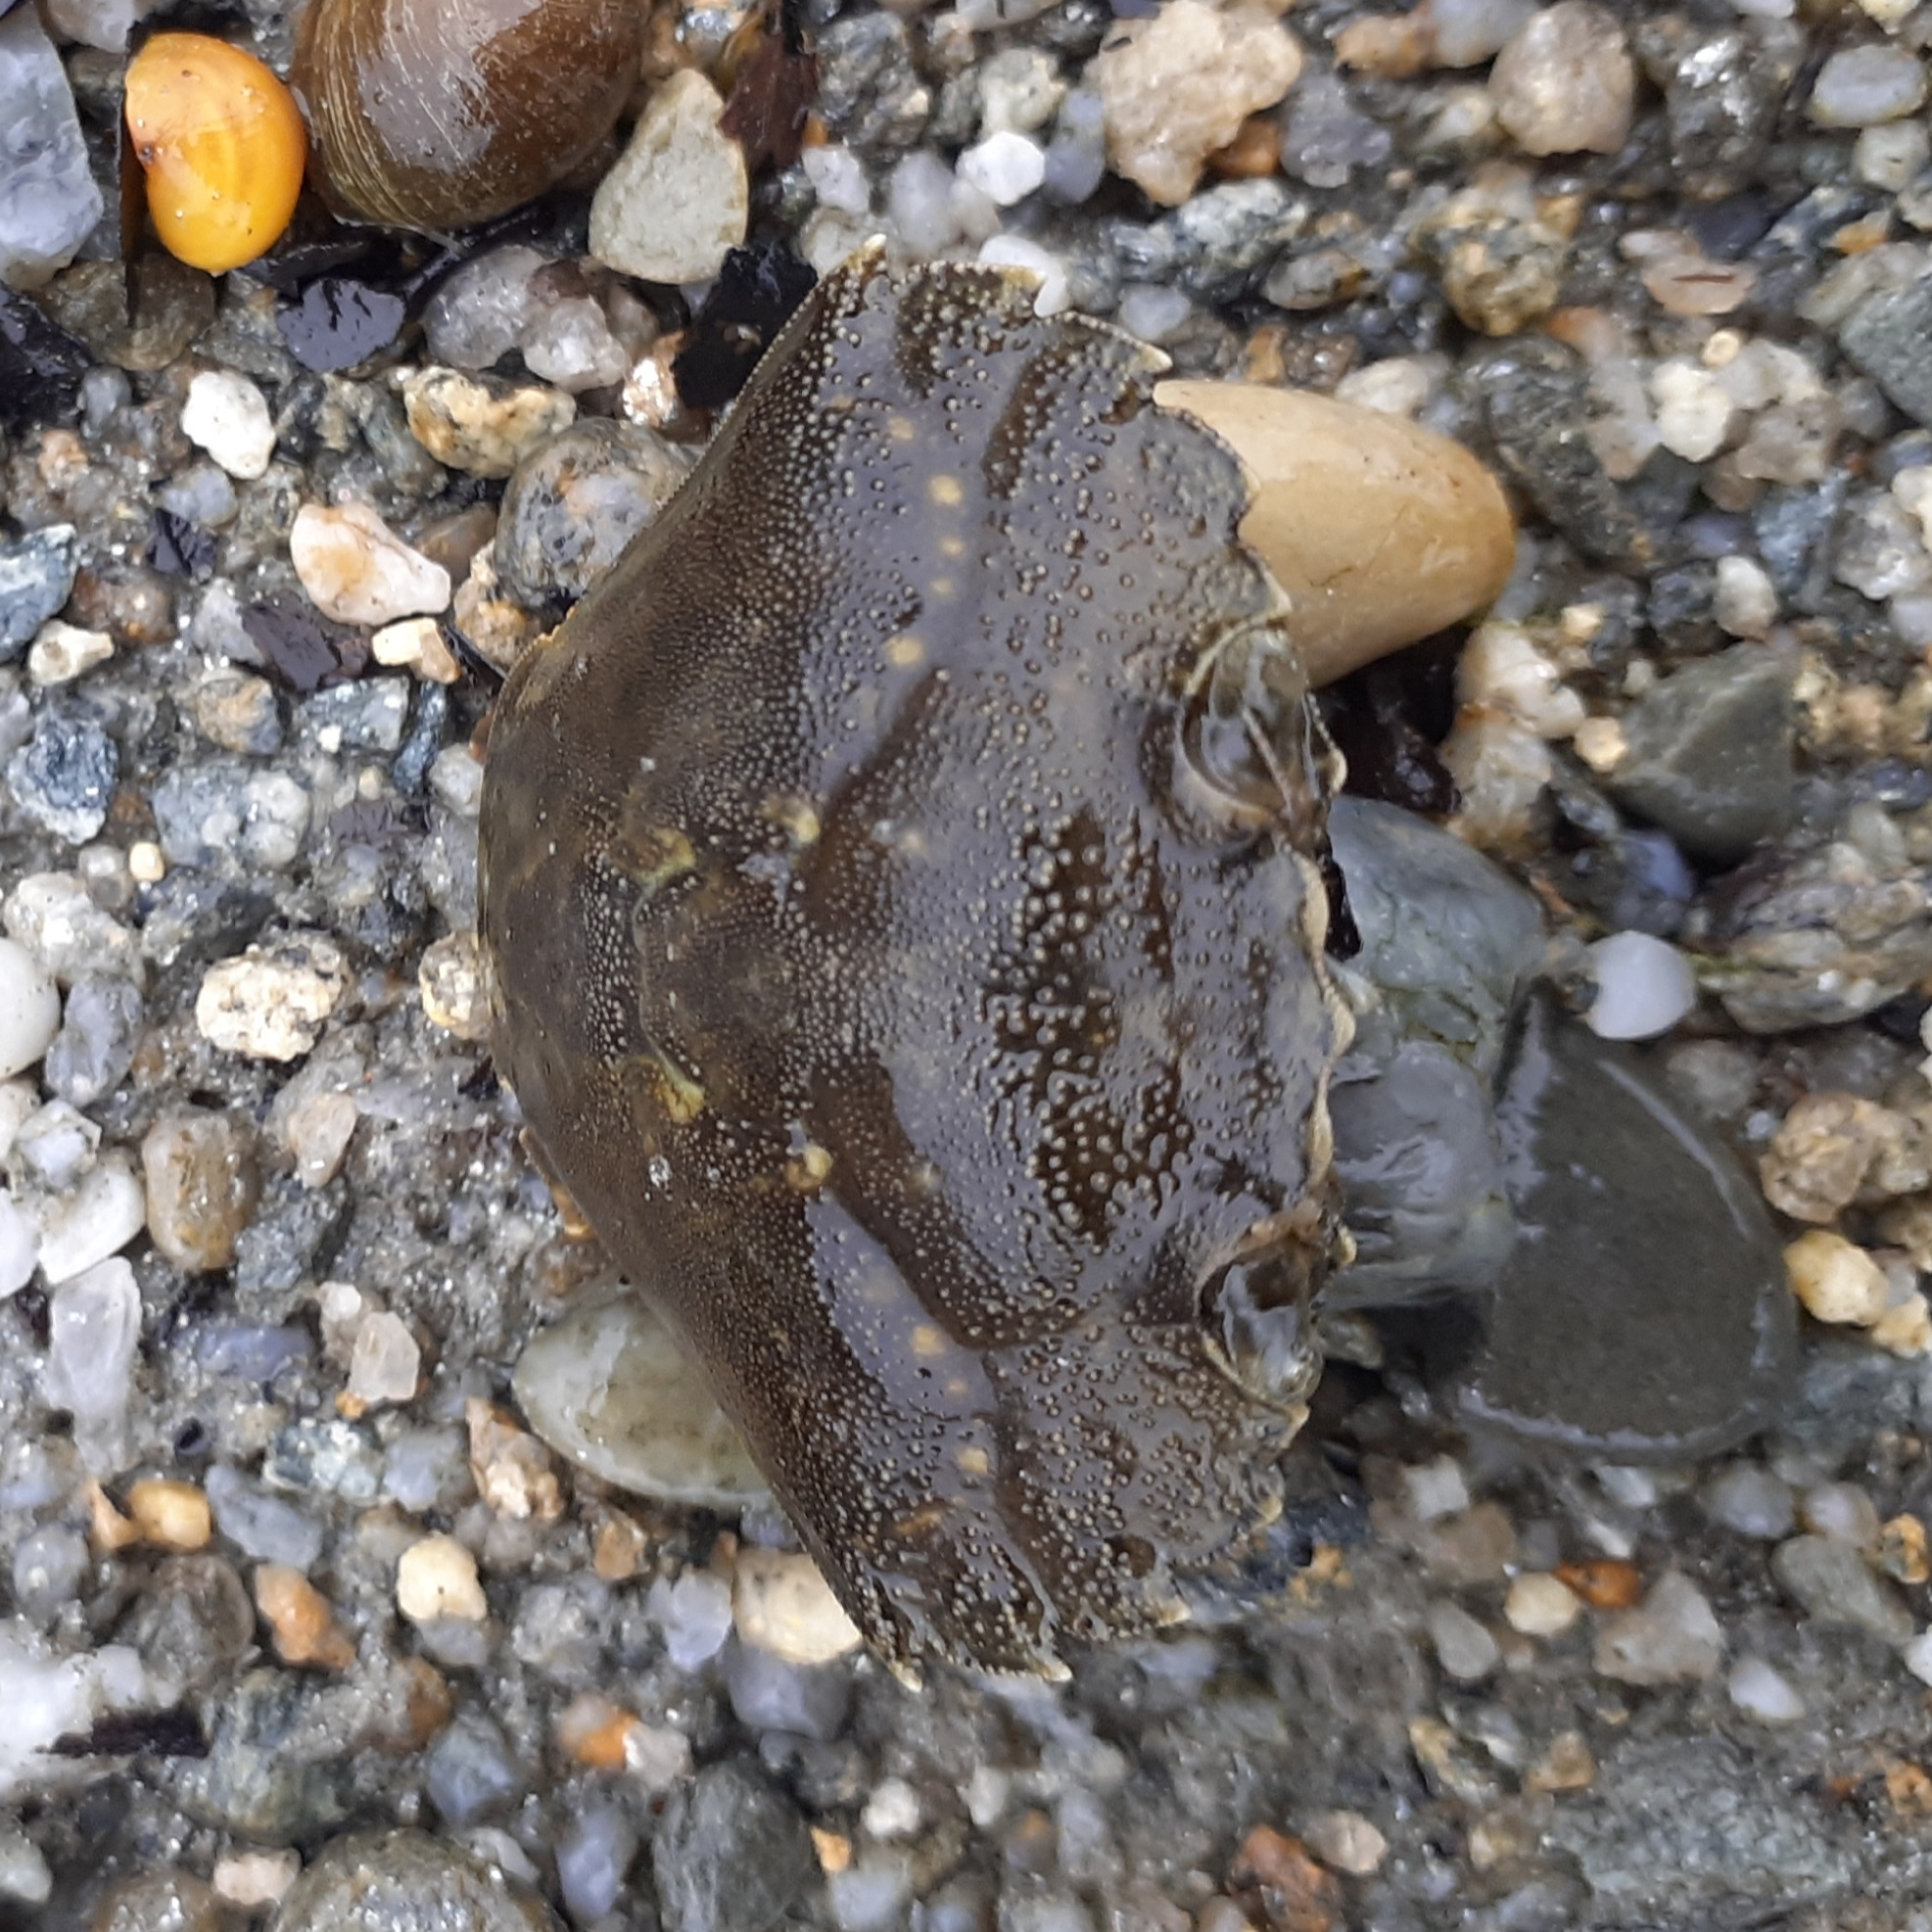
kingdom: Animalia
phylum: Arthropoda
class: Malacostraca
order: Decapoda
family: Carcinidae
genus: Carcinus
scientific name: Carcinus maenas
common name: European green crab
